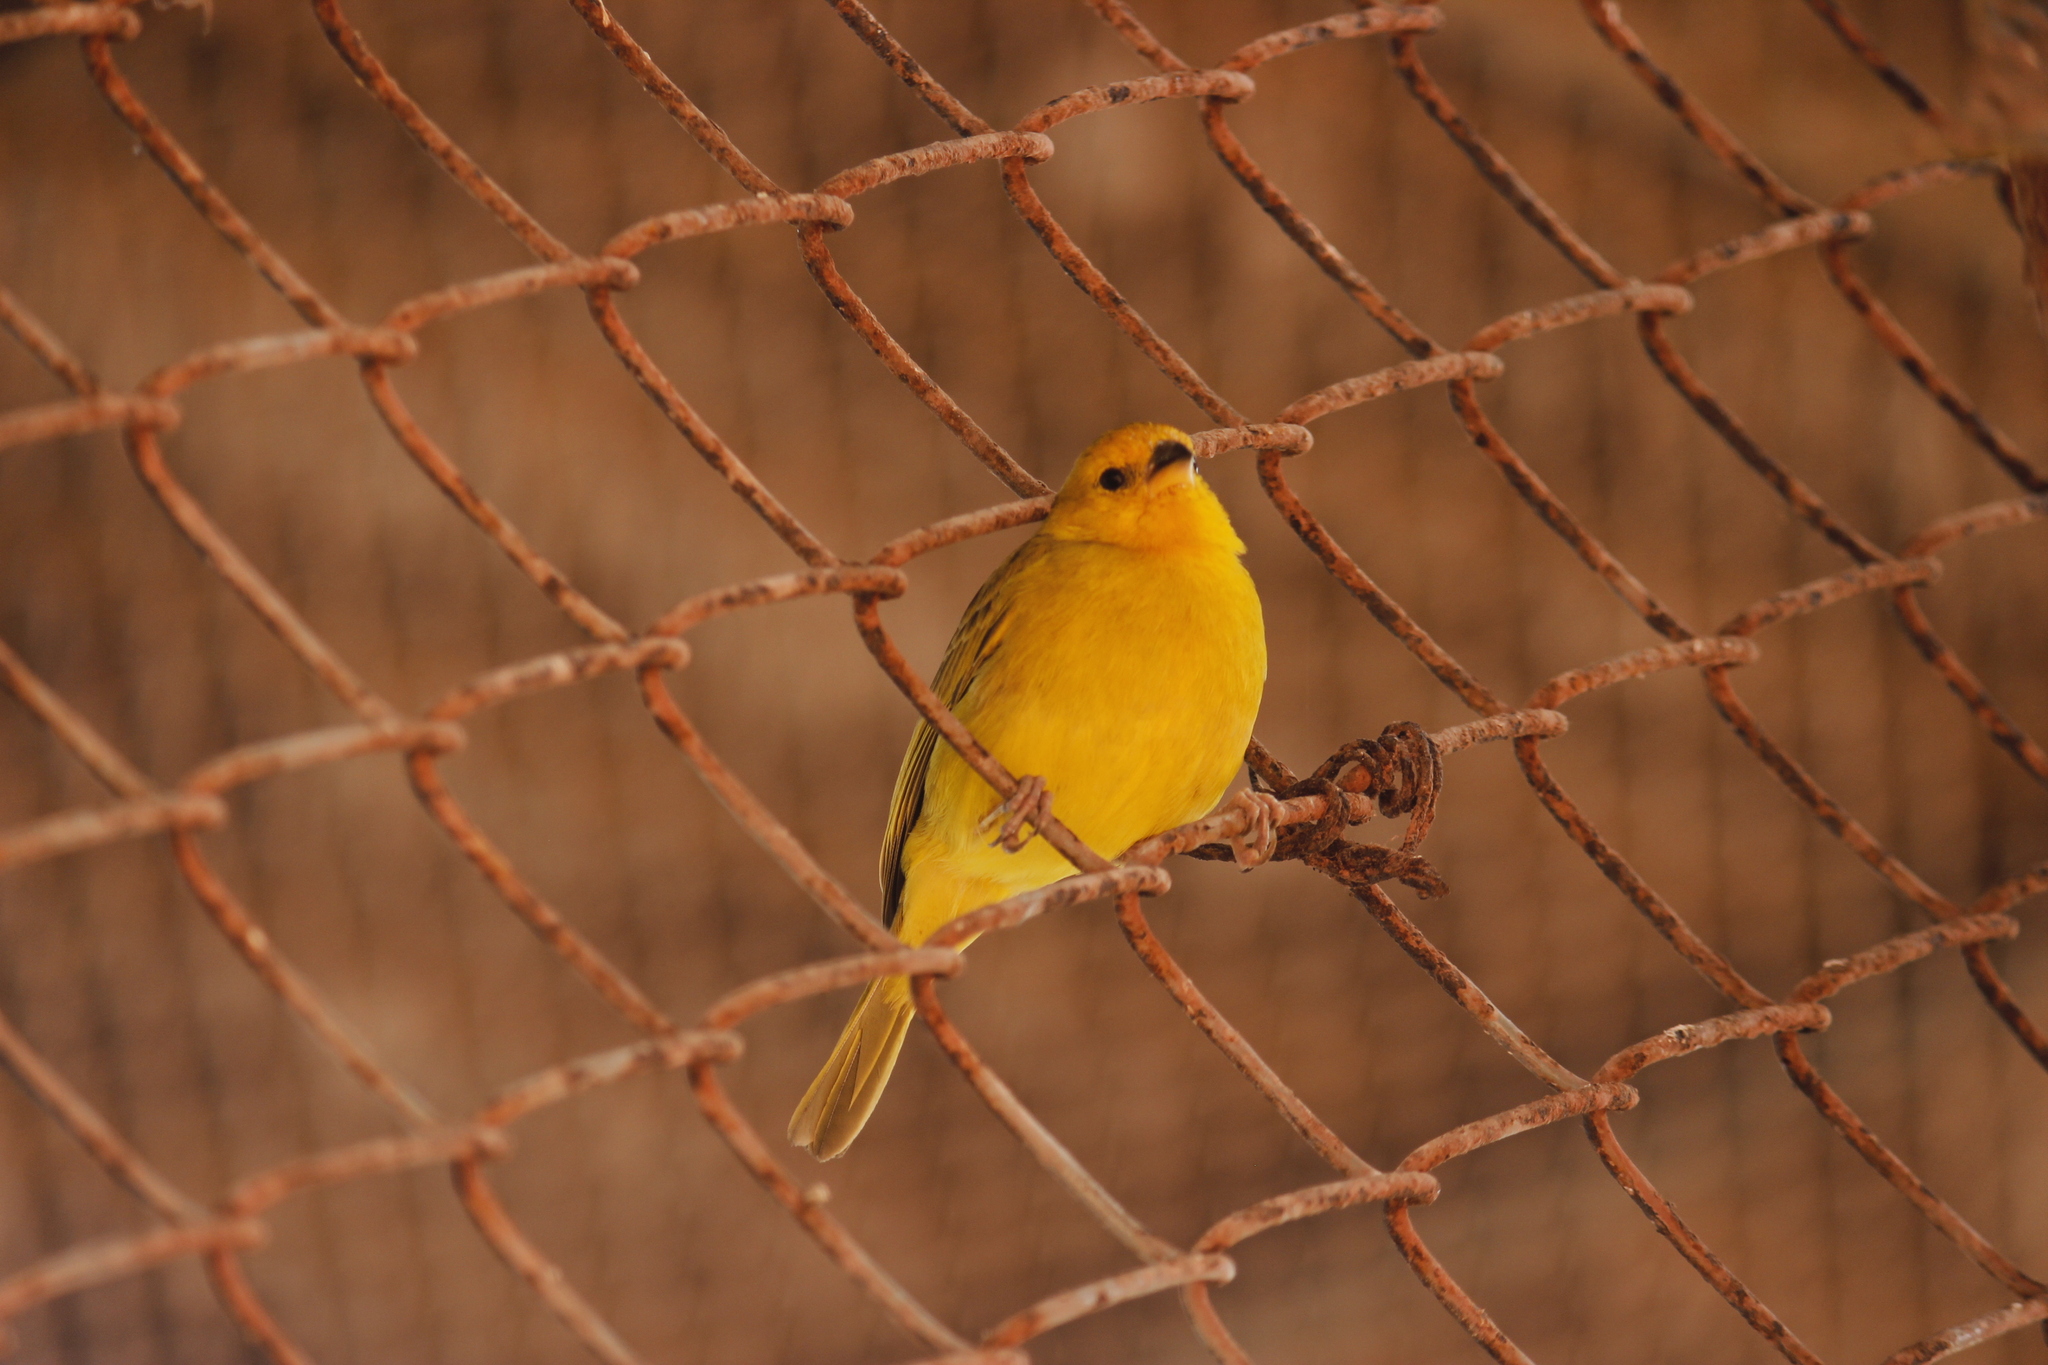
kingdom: Animalia
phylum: Chordata
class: Aves
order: Passeriformes
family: Thraupidae
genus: Sicalis
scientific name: Sicalis flaveola
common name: Saffron finch
